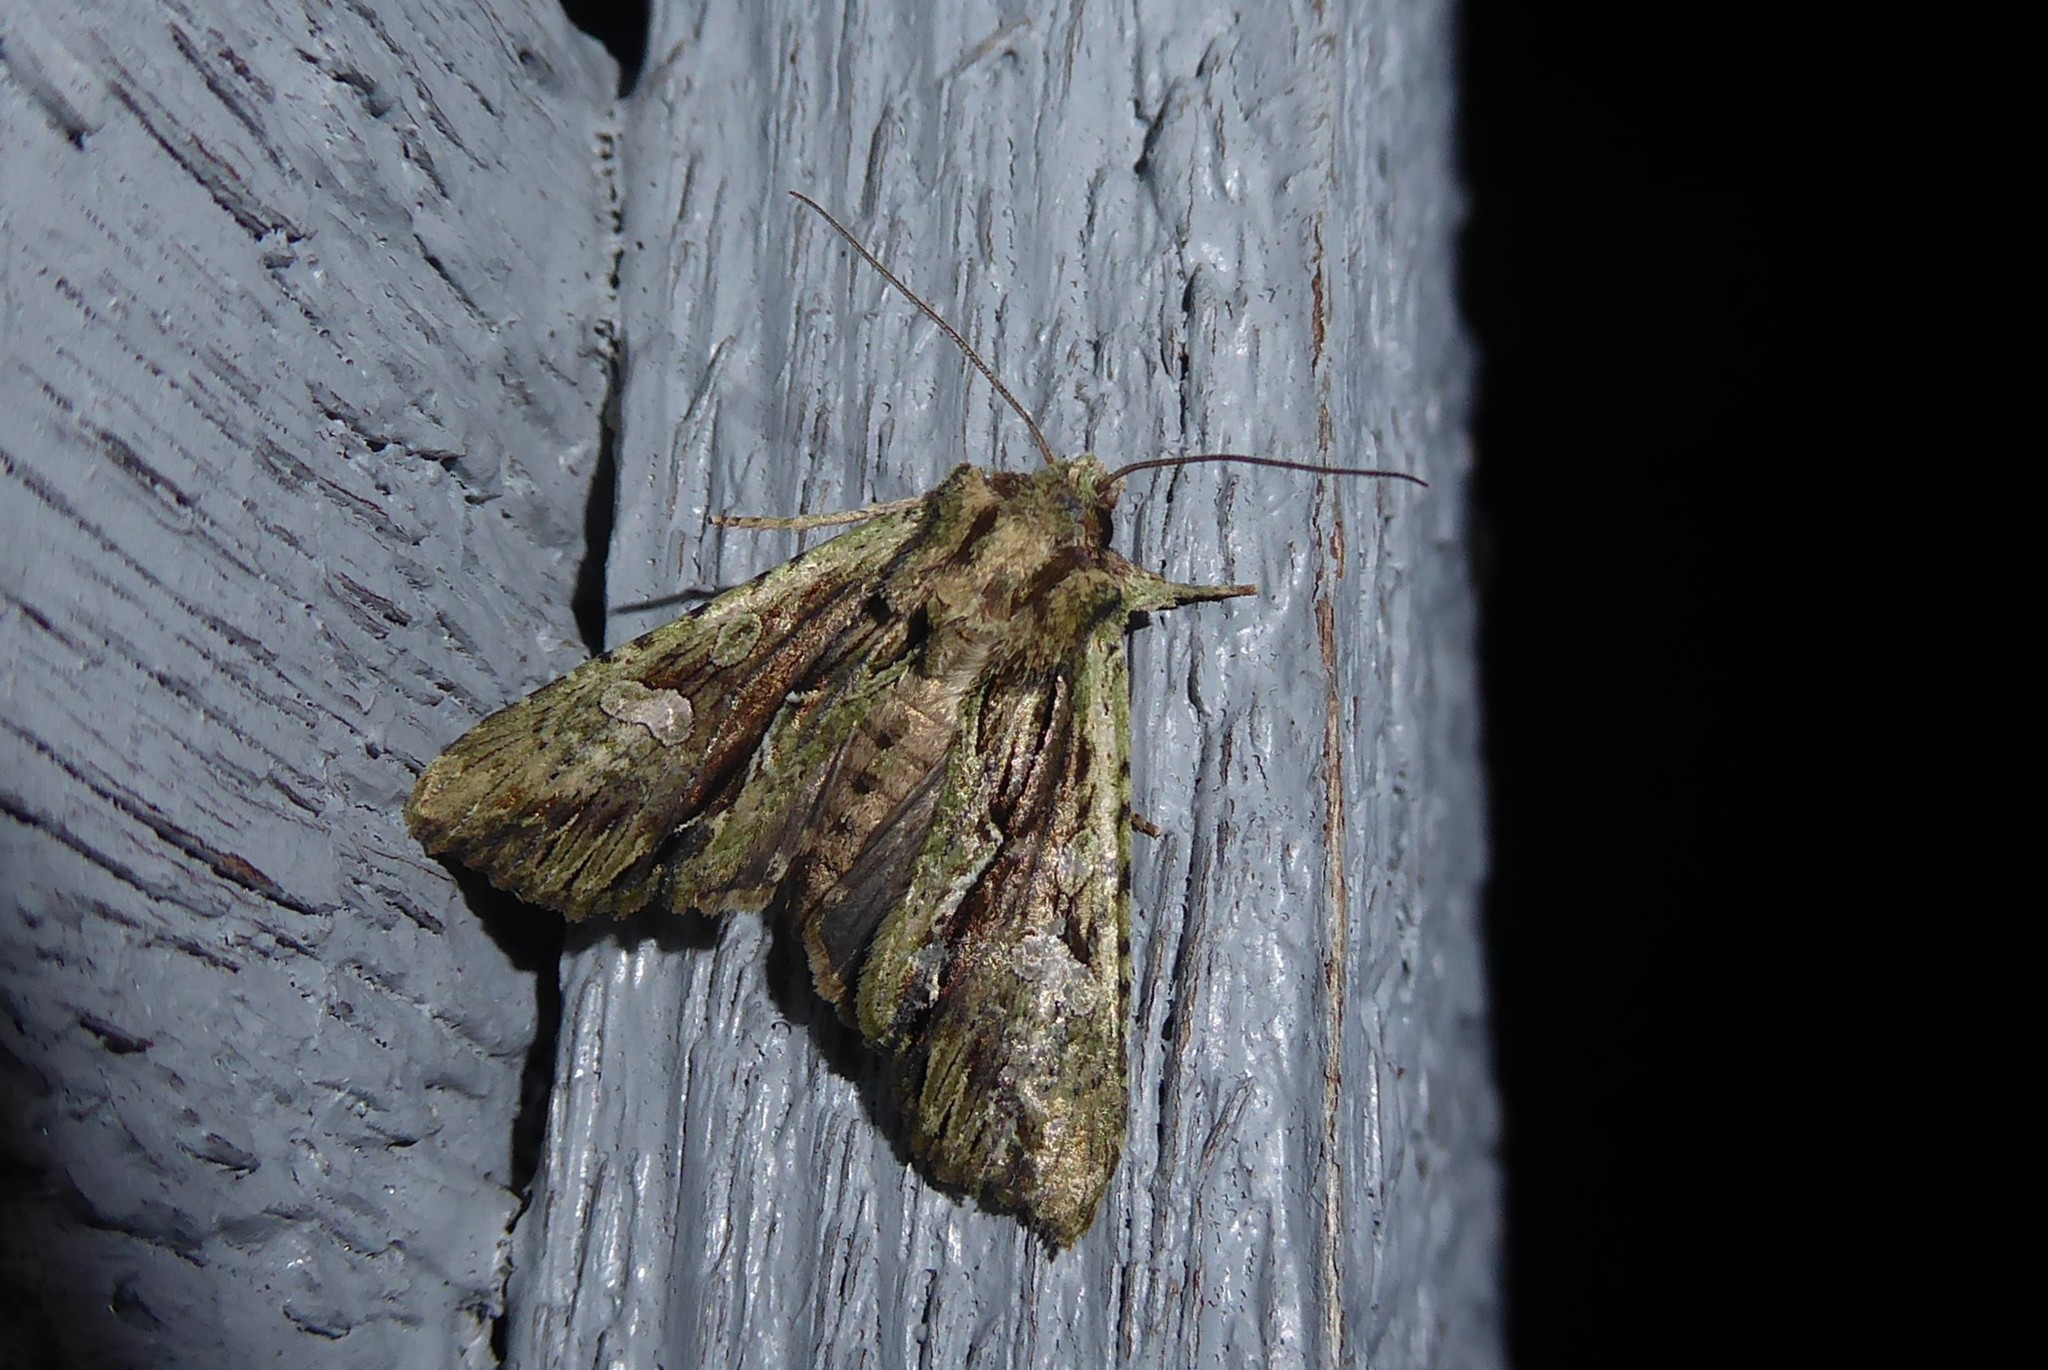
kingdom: Animalia
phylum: Arthropoda
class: Insecta
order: Lepidoptera
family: Noctuidae
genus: Meterana
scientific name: Meterana decorata
